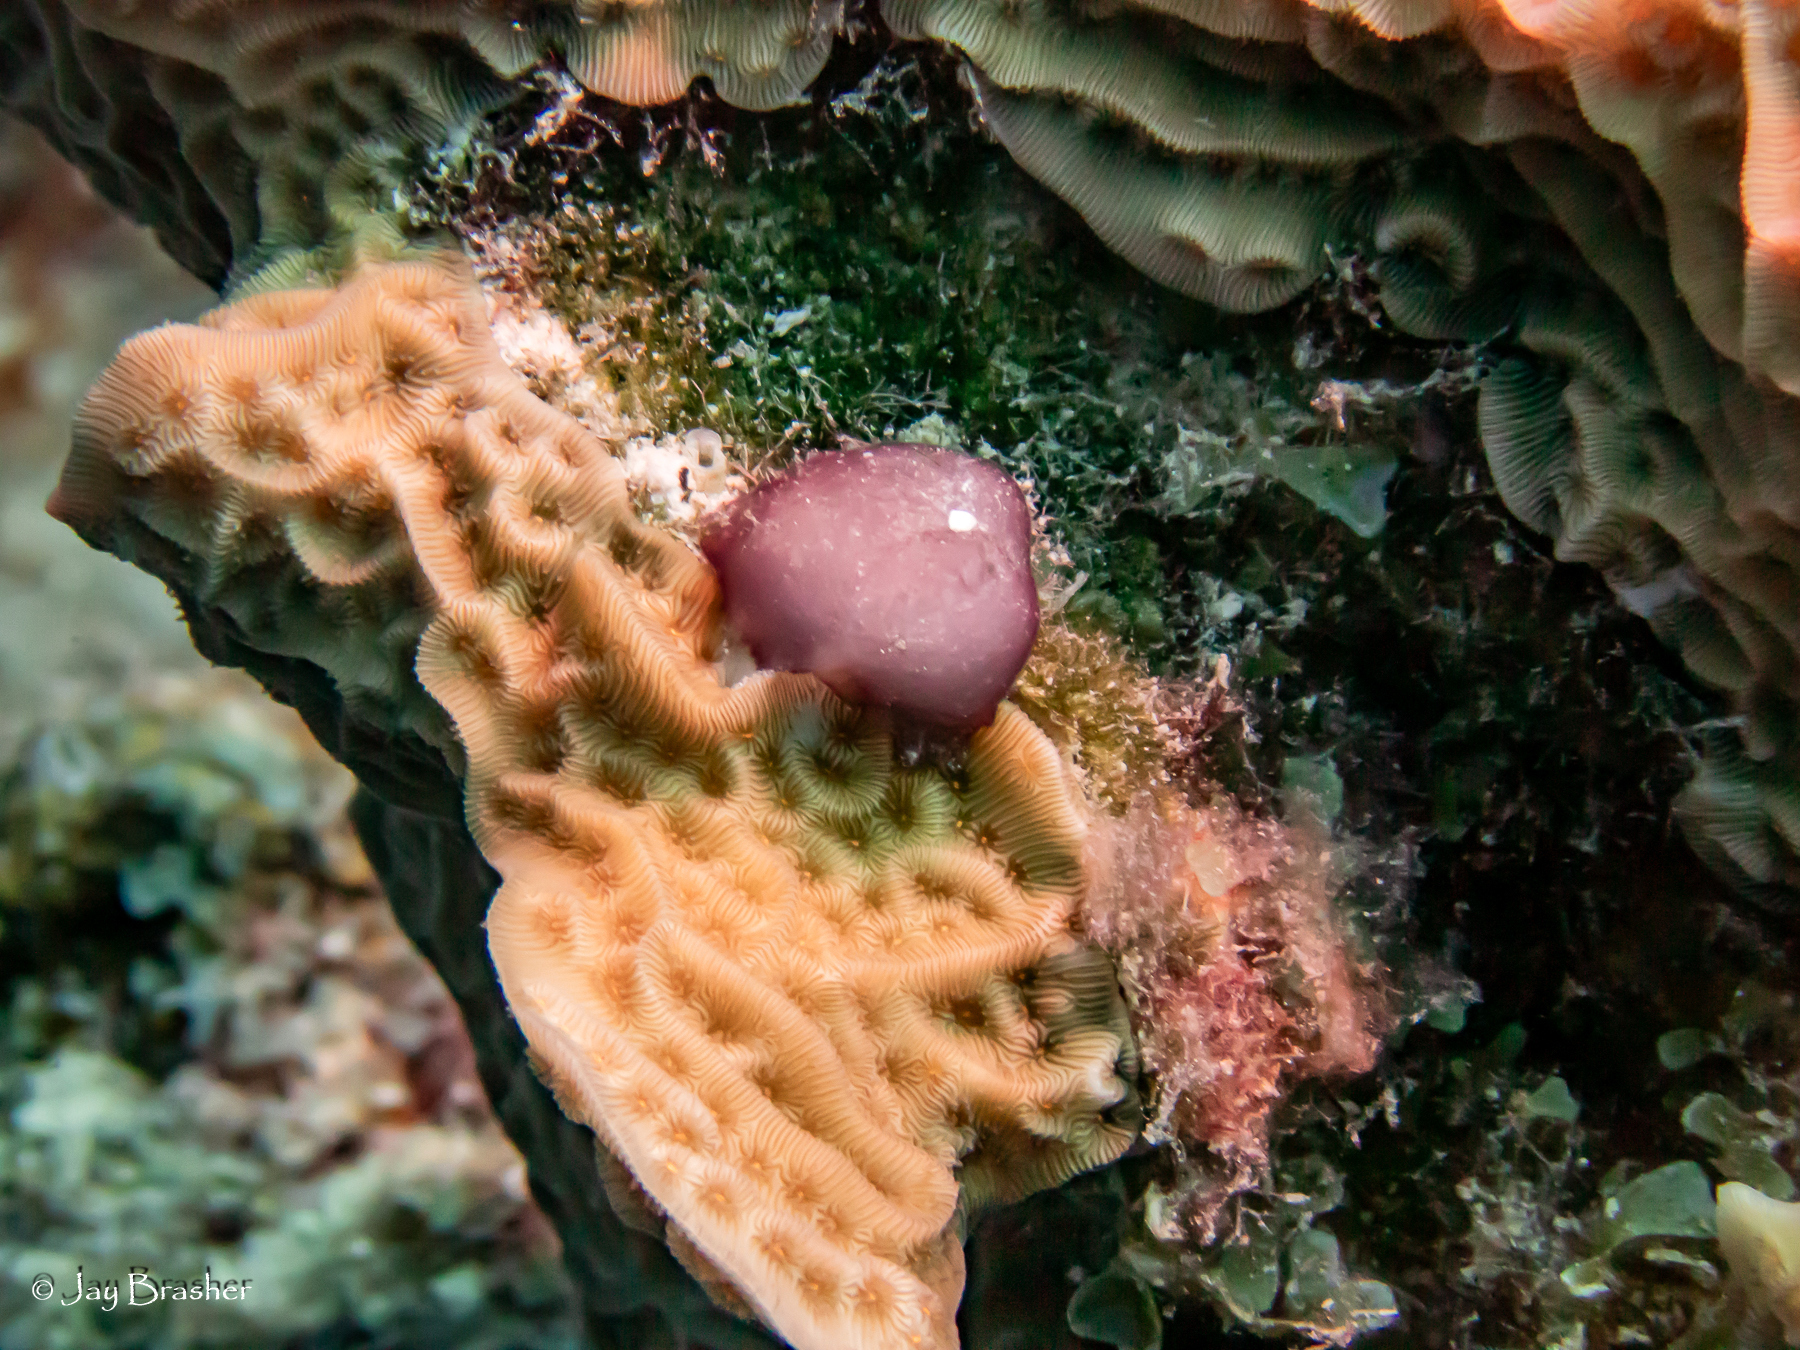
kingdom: Animalia
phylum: Cnidaria
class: Anthozoa
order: Scleractinia
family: Agariciidae
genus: Agaricia
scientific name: Agaricia agaricites
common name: Lettuce coral
